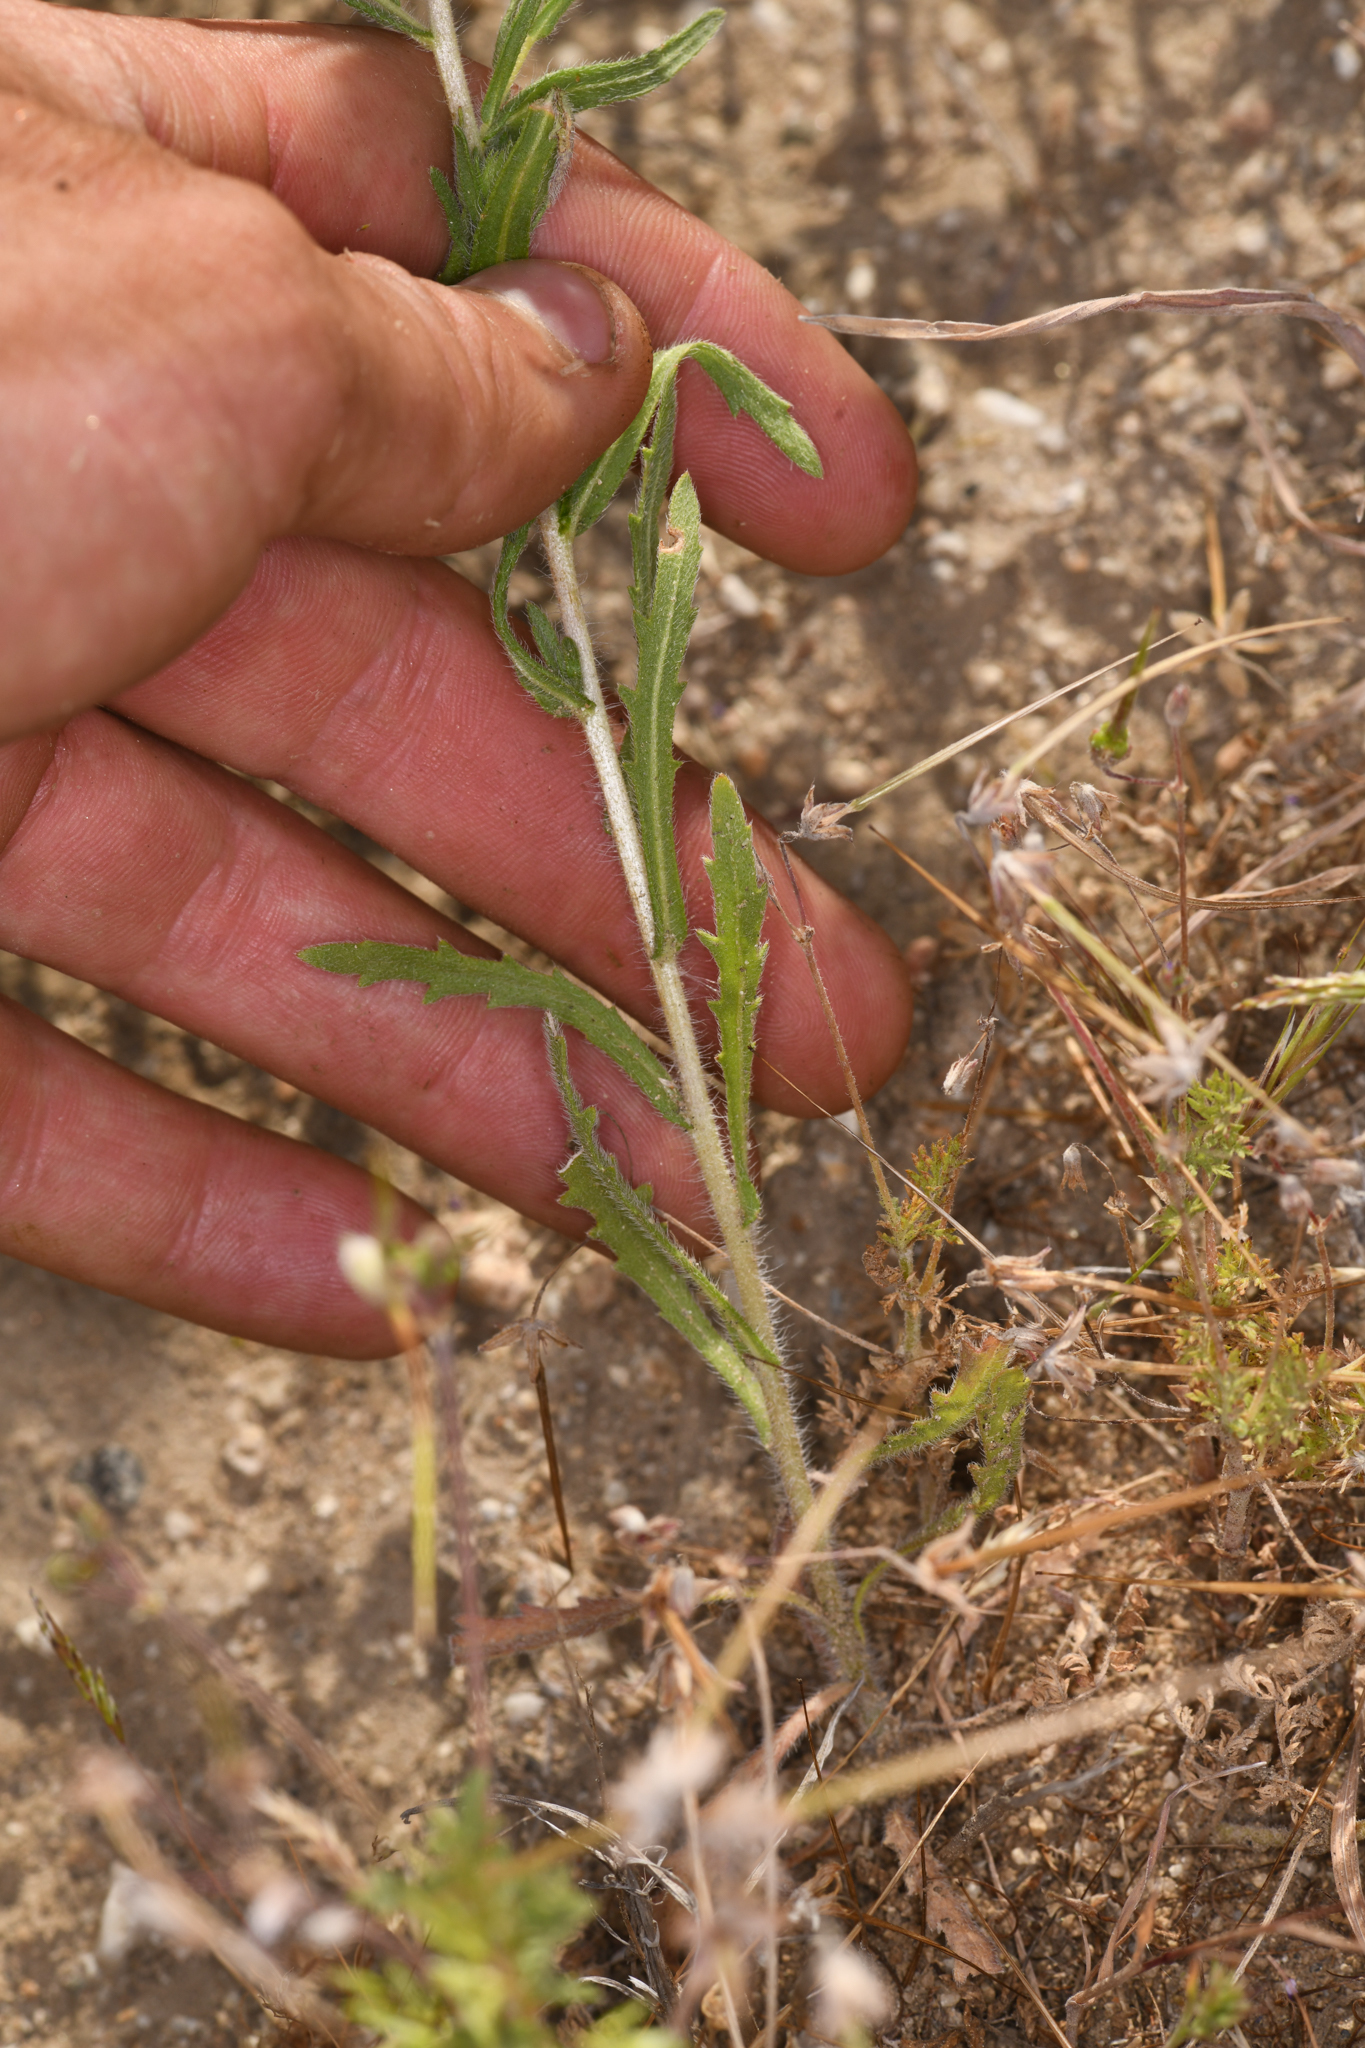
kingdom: Plantae
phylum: Tracheophyta
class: Magnoliopsida
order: Asterales
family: Asteraceae
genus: Deinandra
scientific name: Deinandra pallida
